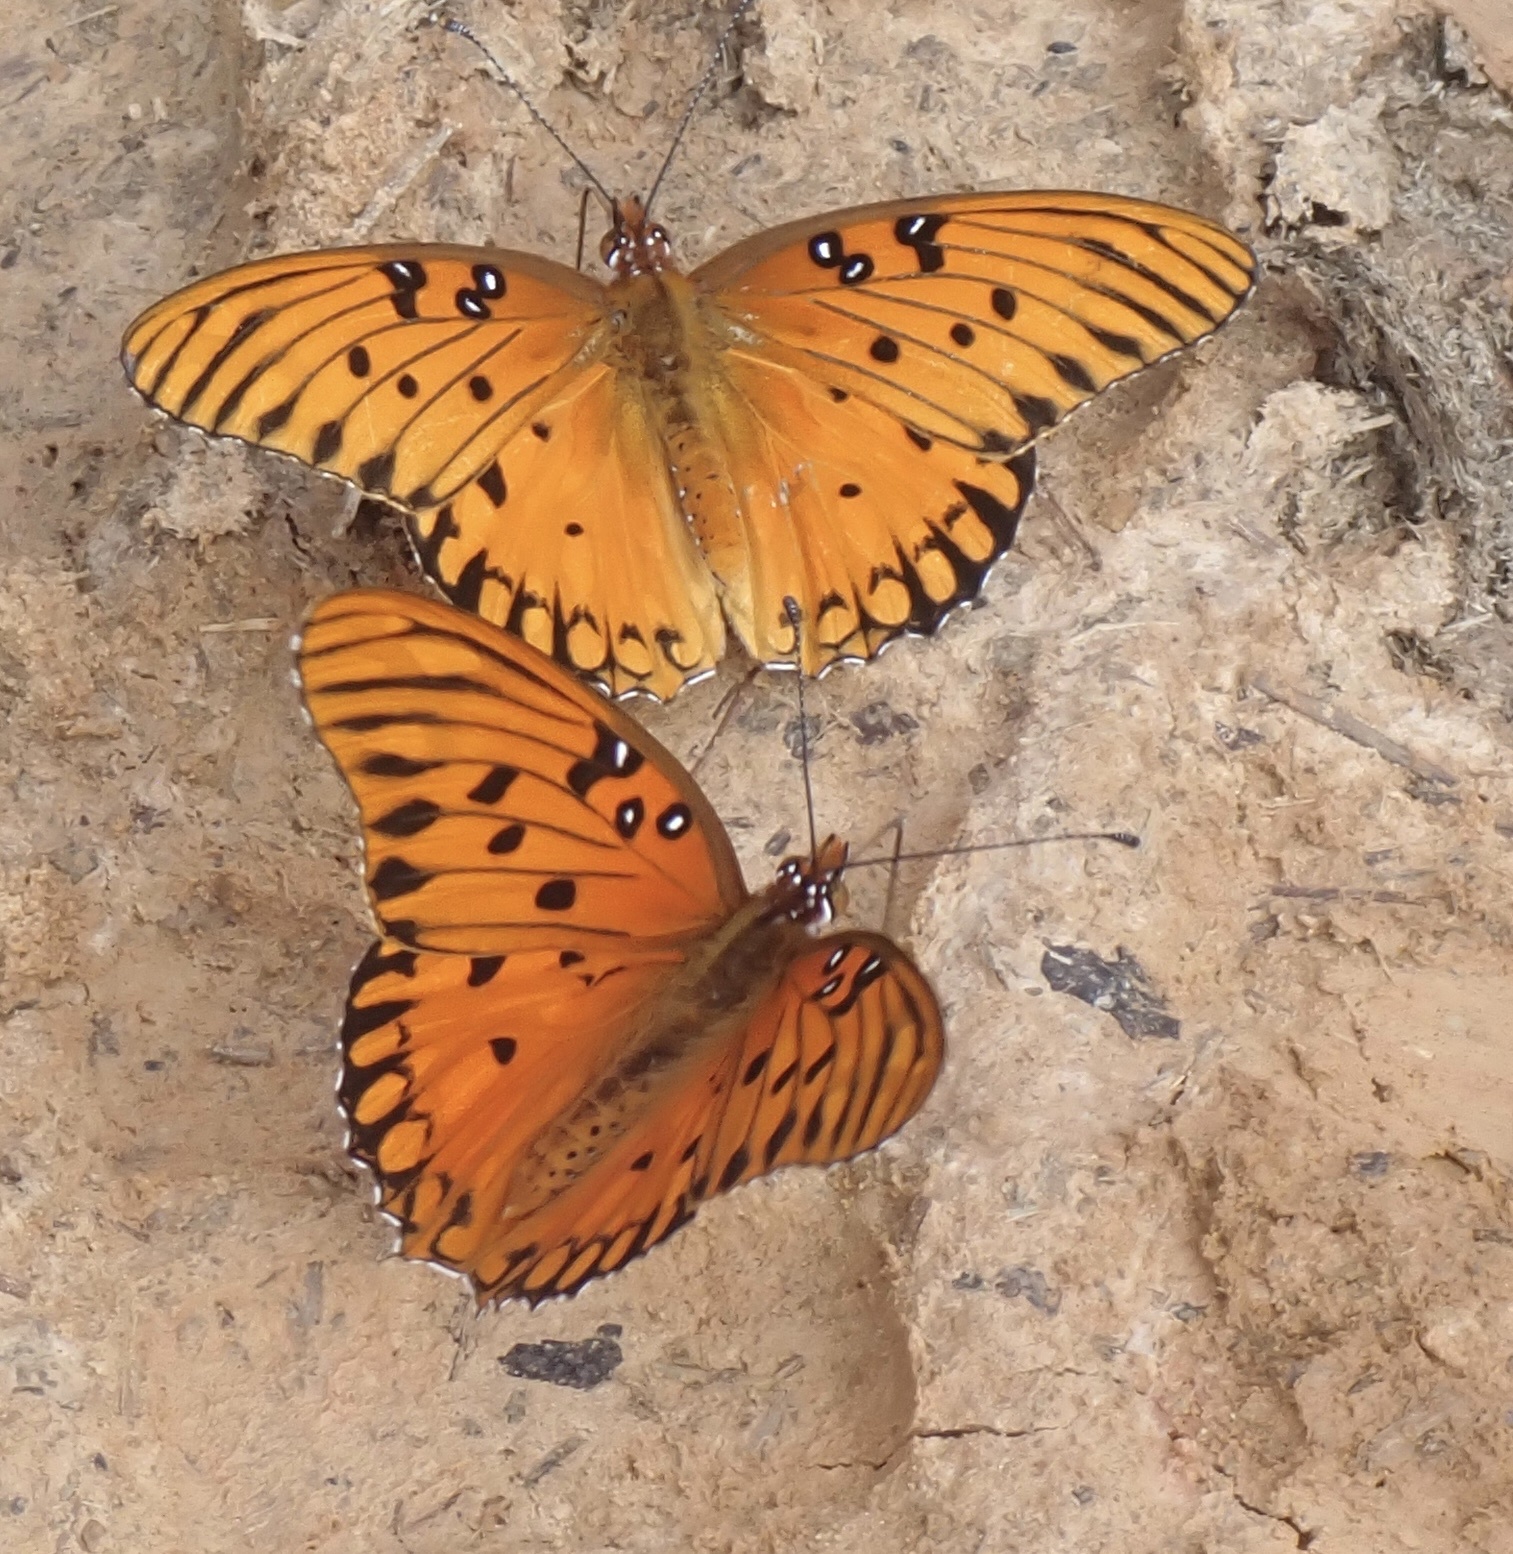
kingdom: Animalia
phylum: Arthropoda
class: Insecta
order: Lepidoptera
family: Nymphalidae
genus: Dione
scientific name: Dione vanillae
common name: Gulf fritillary
